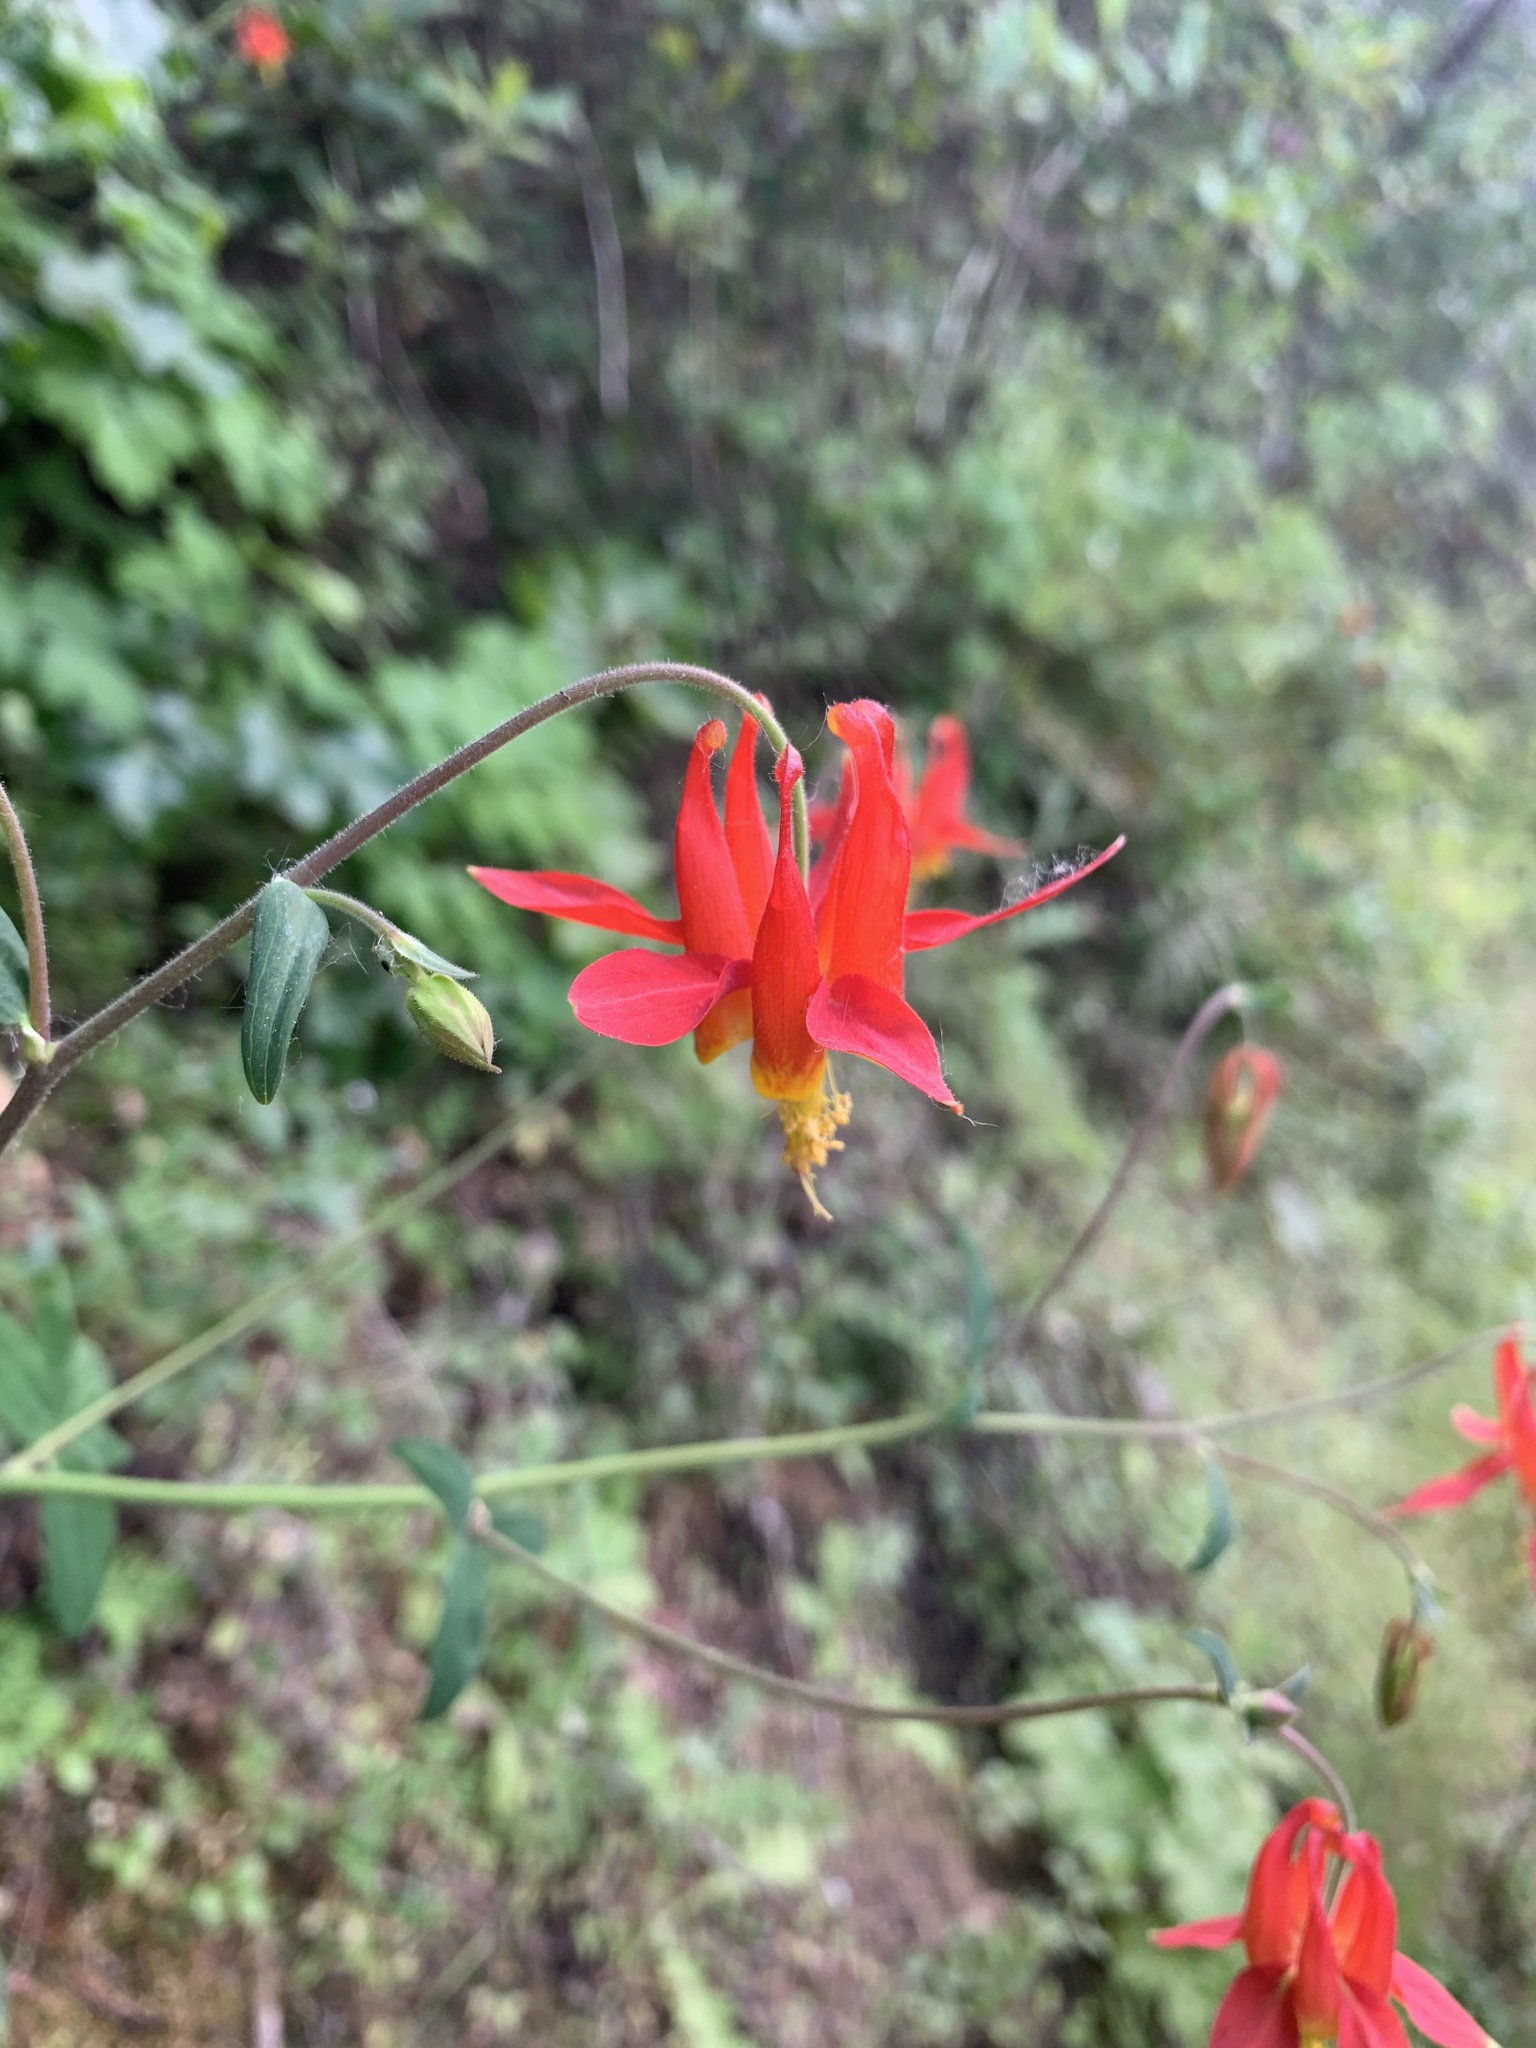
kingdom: Plantae
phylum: Tracheophyta
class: Magnoliopsida
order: Ranunculales
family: Ranunculaceae
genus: Aquilegia
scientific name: Aquilegia formosa
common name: Sitka columbine
